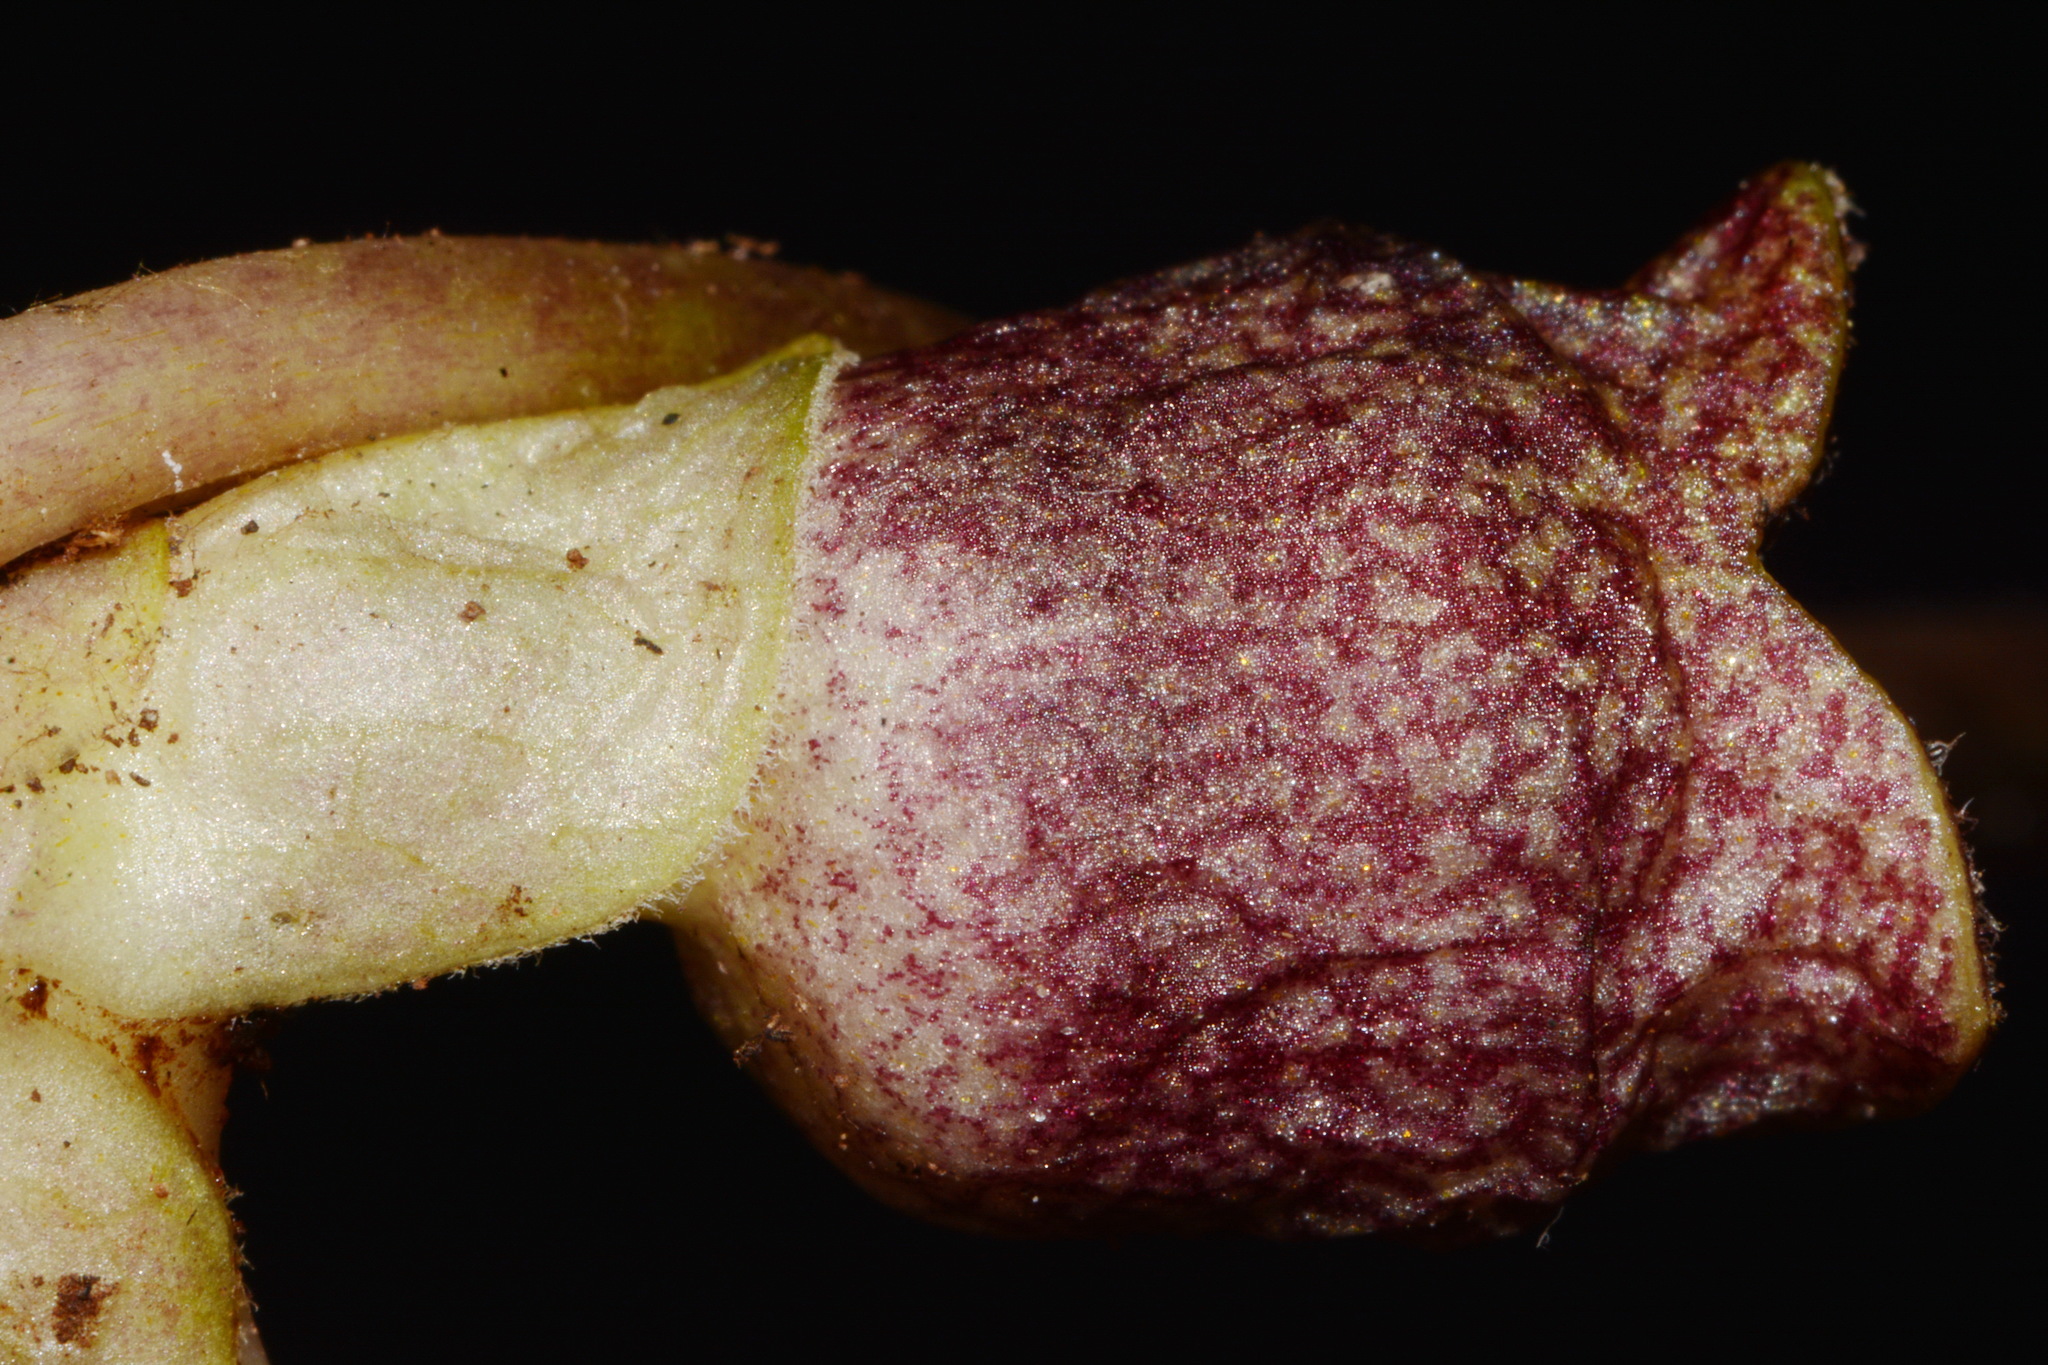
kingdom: Plantae
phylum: Tracheophyta
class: Magnoliopsida
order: Piperales
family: Aristolochiaceae
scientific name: Aristolochiaceae
